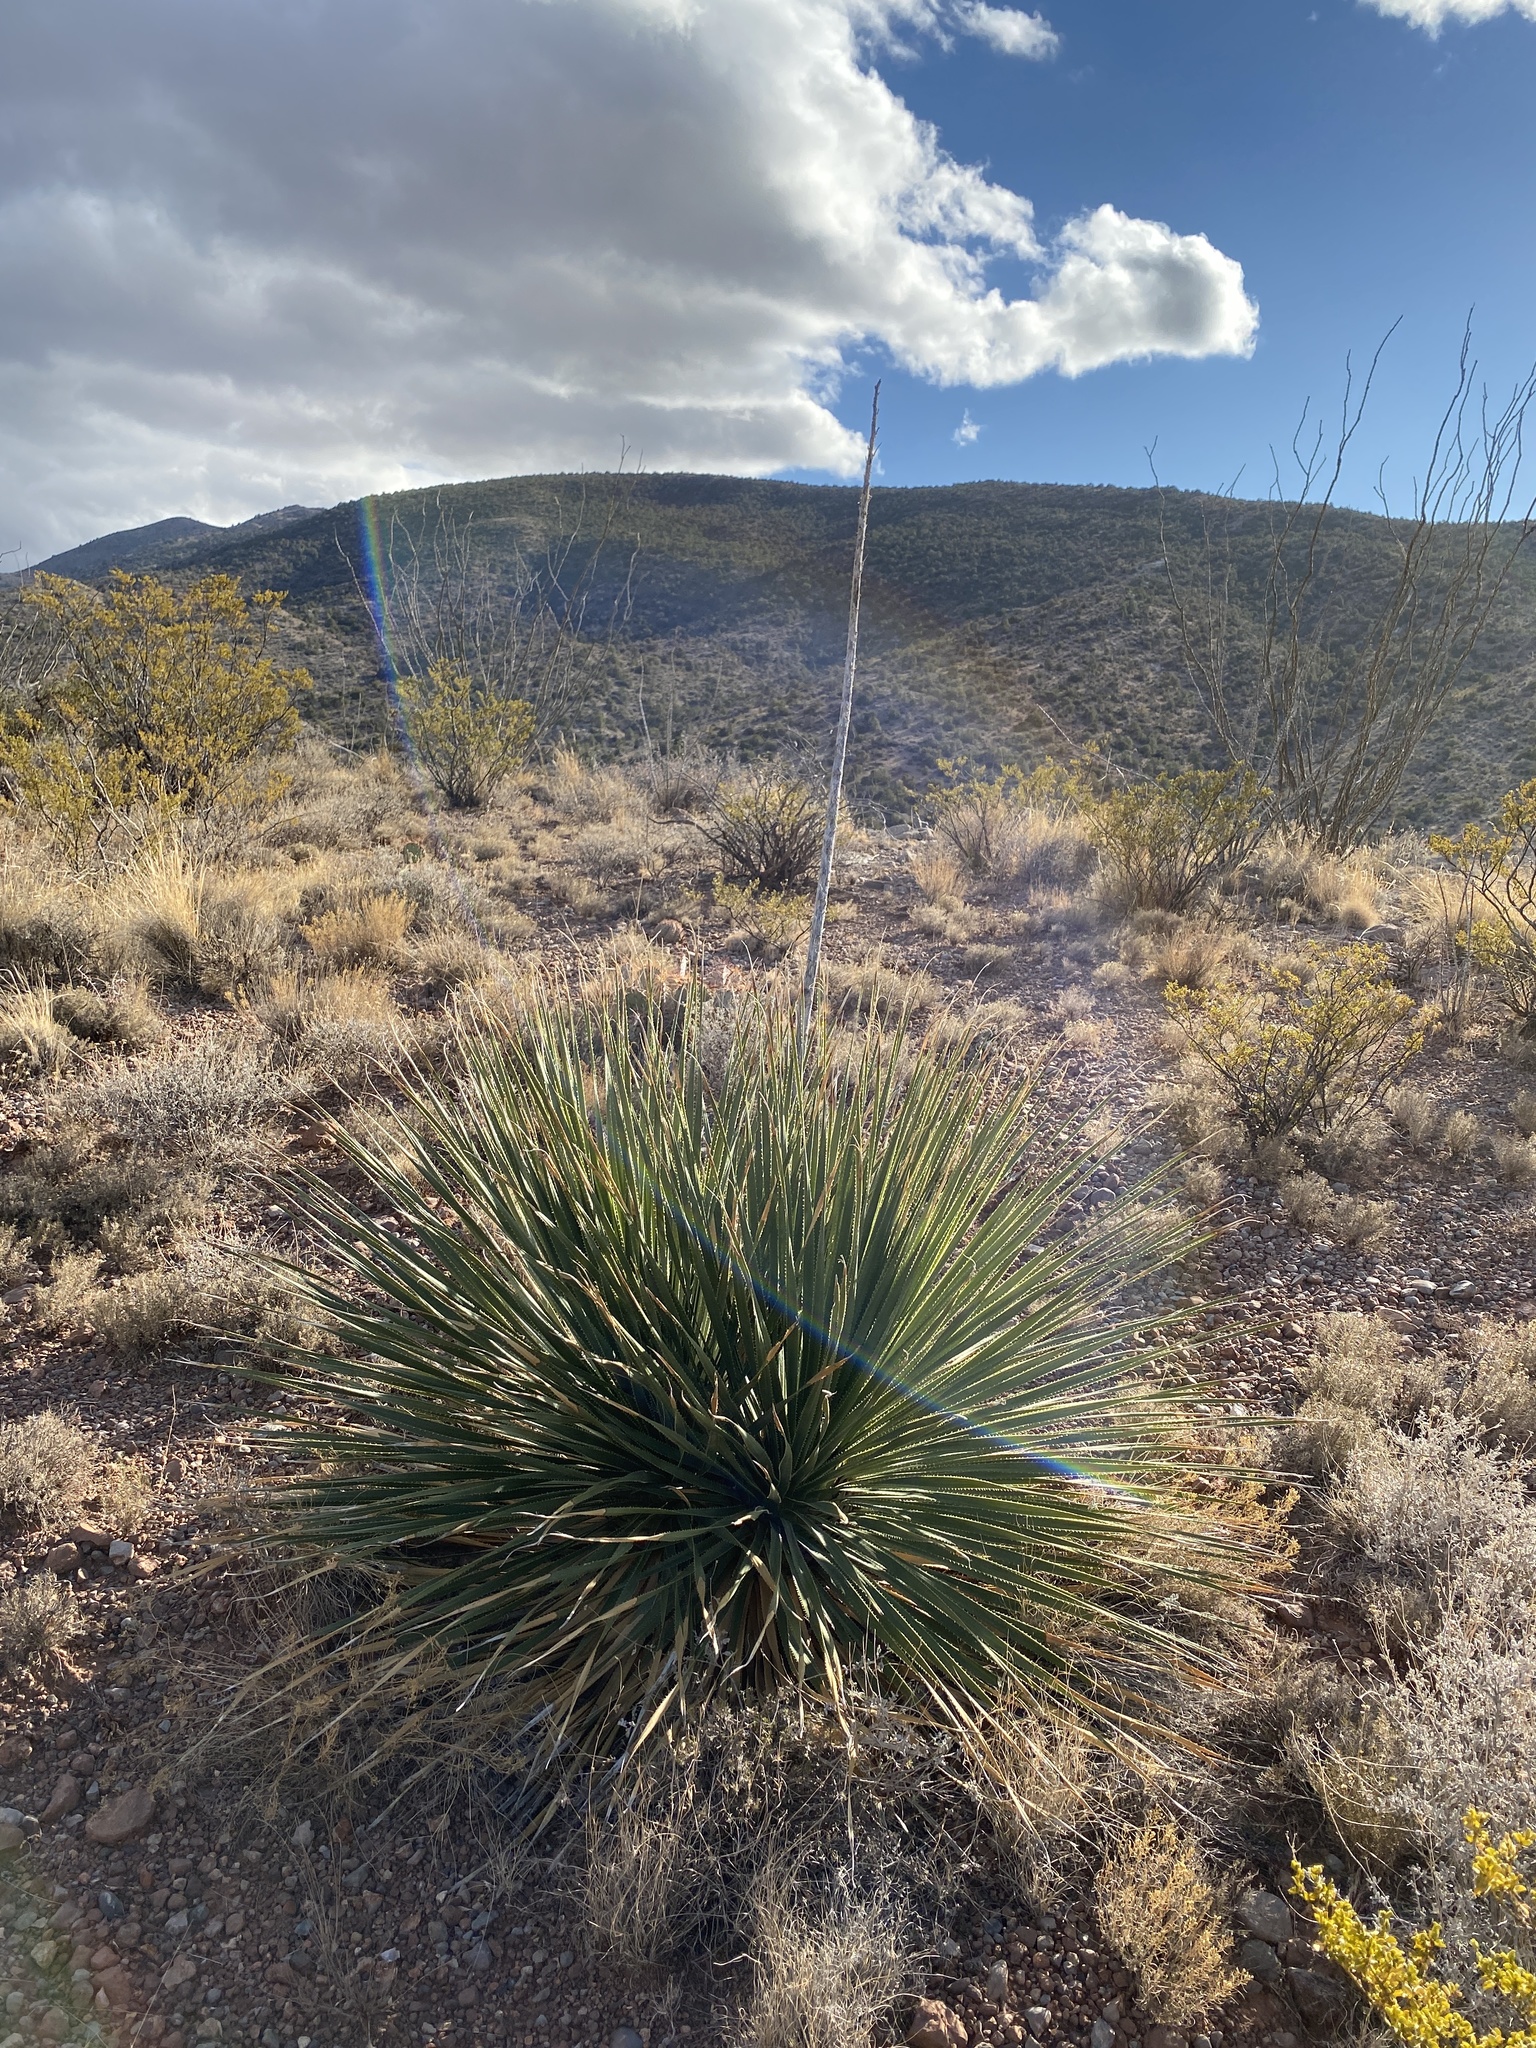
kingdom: Plantae
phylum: Tracheophyta
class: Liliopsida
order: Asparagales
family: Asparagaceae
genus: Dasylirion
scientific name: Dasylirion wheeleri
